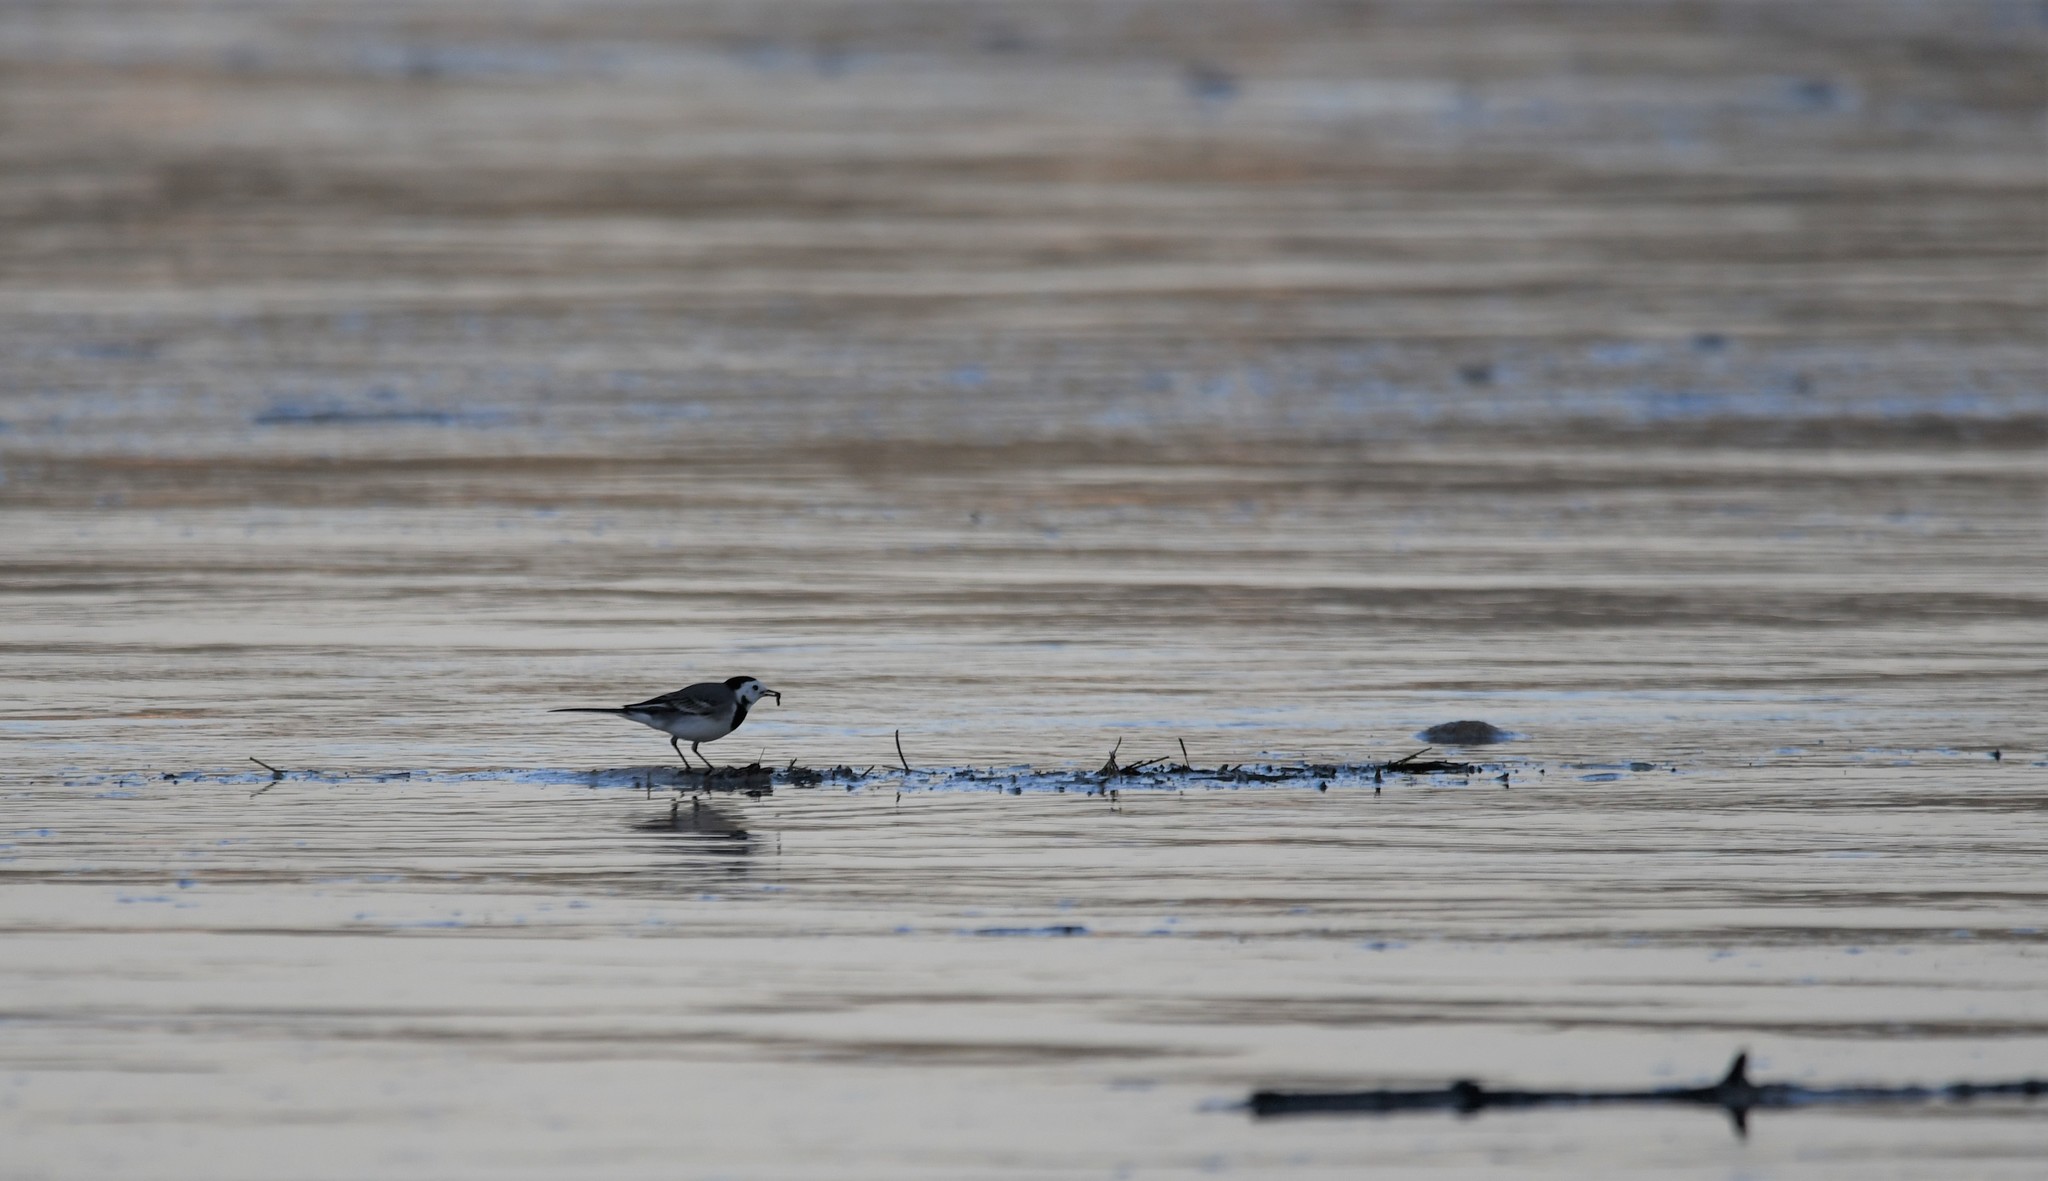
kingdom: Animalia
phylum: Chordata
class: Aves
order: Passeriformes
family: Motacillidae
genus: Motacilla
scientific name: Motacilla alba
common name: White wagtail
